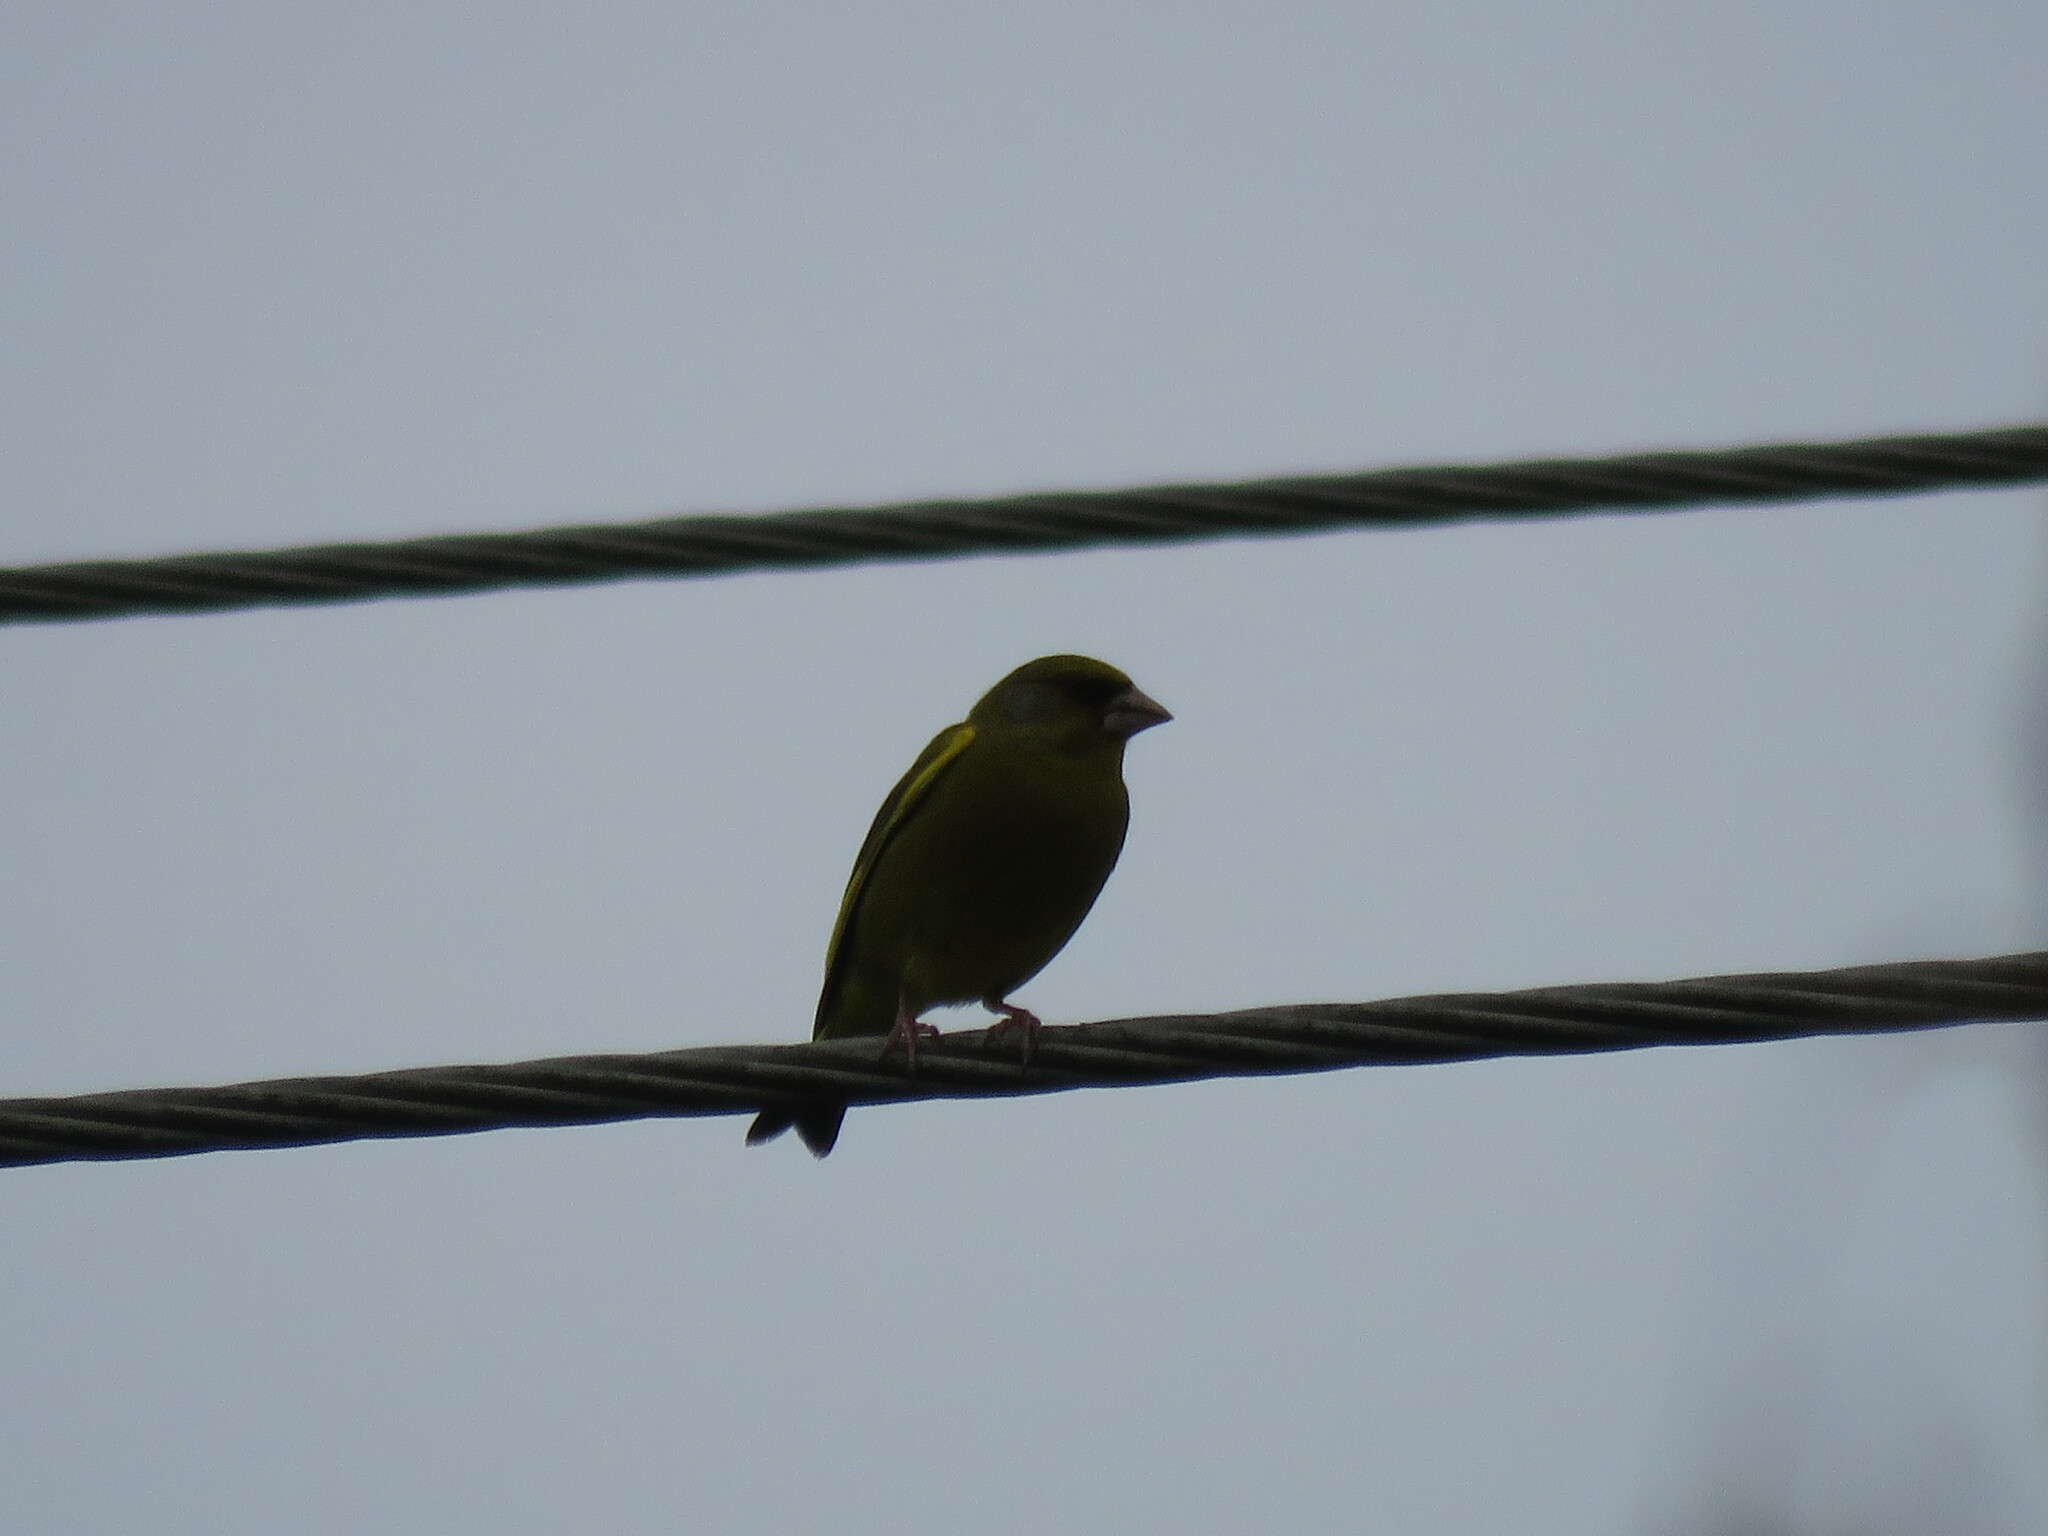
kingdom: Plantae
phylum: Tracheophyta
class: Liliopsida
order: Poales
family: Poaceae
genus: Chloris
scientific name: Chloris chloris
